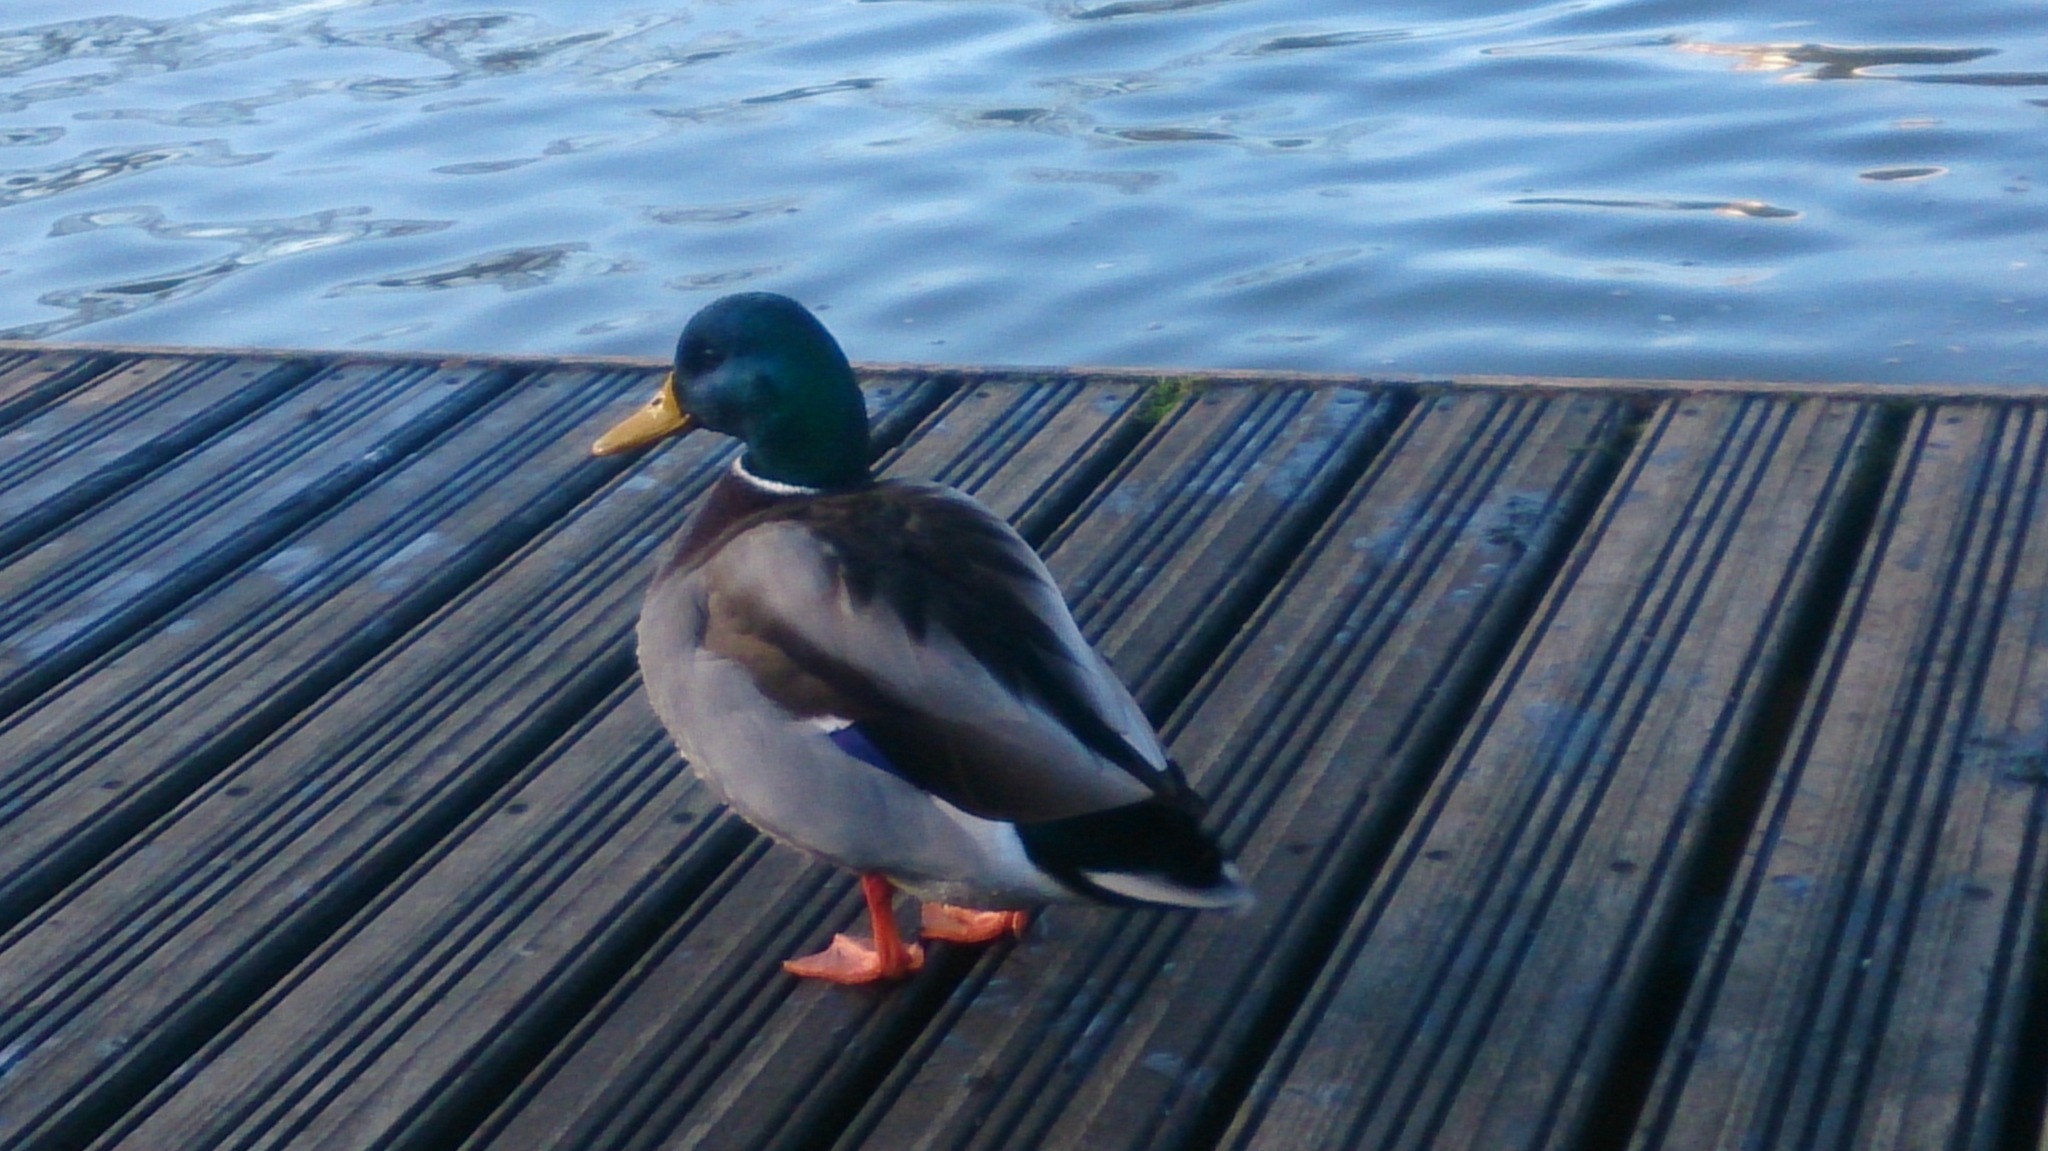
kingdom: Animalia
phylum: Chordata
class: Aves
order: Anseriformes
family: Anatidae
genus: Anas
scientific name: Anas platyrhynchos
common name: Mallard
